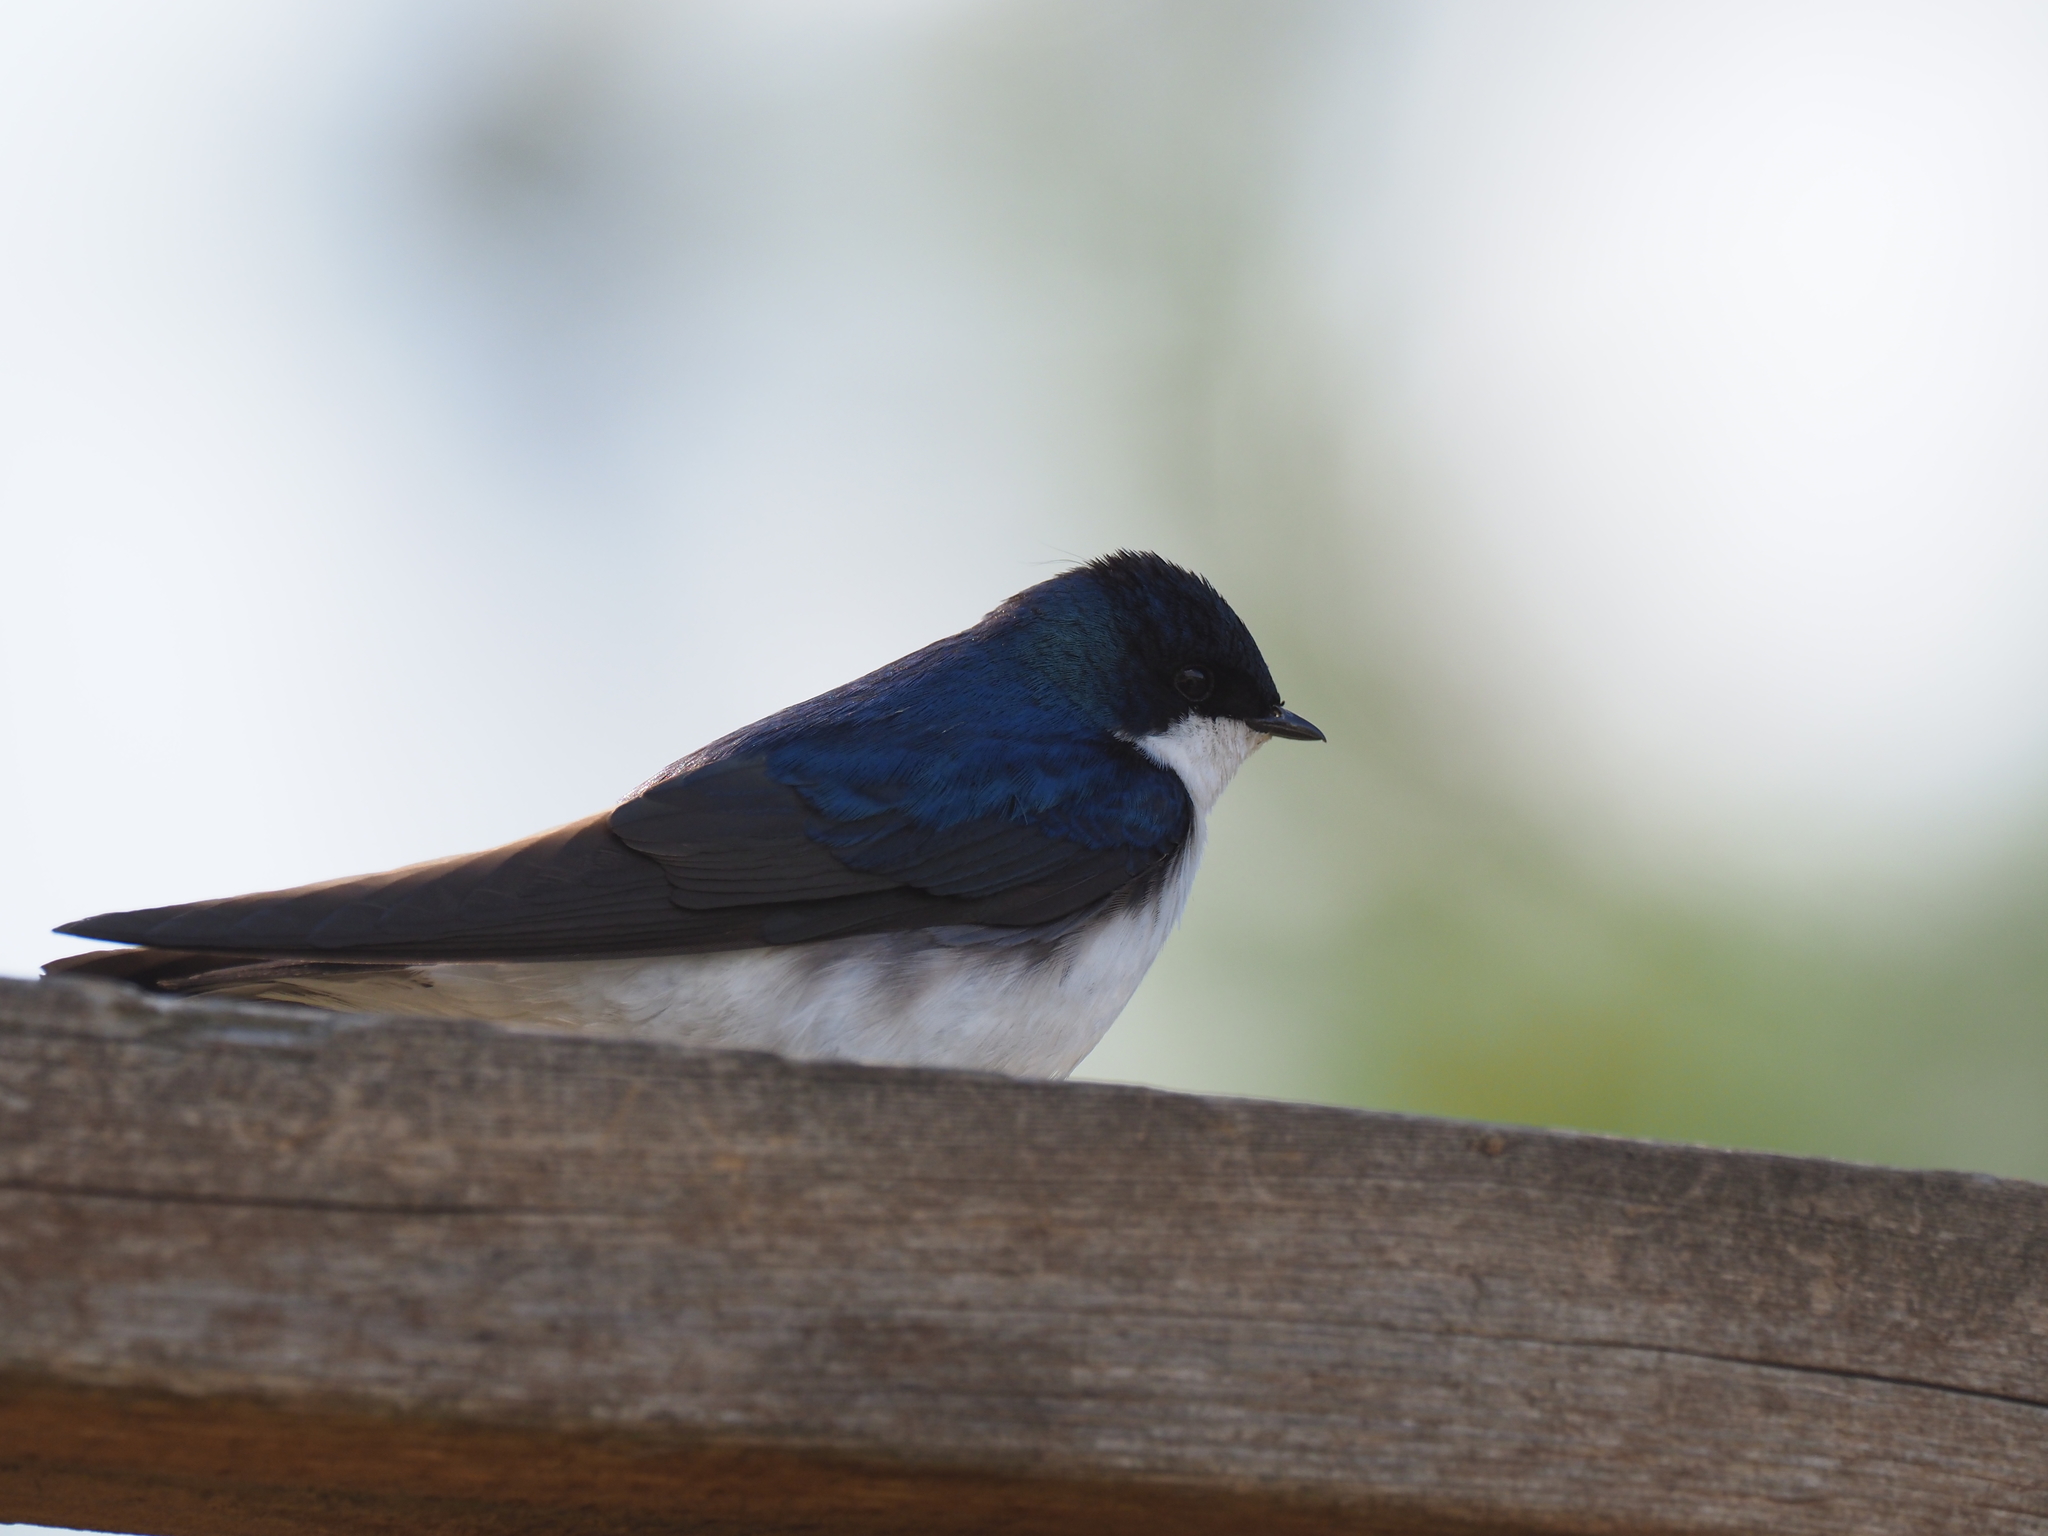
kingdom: Animalia
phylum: Chordata
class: Aves
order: Passeriformes
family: Hirundinidae
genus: Tachycineta
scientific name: Tachycineta bicolor
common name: Tree swallow
